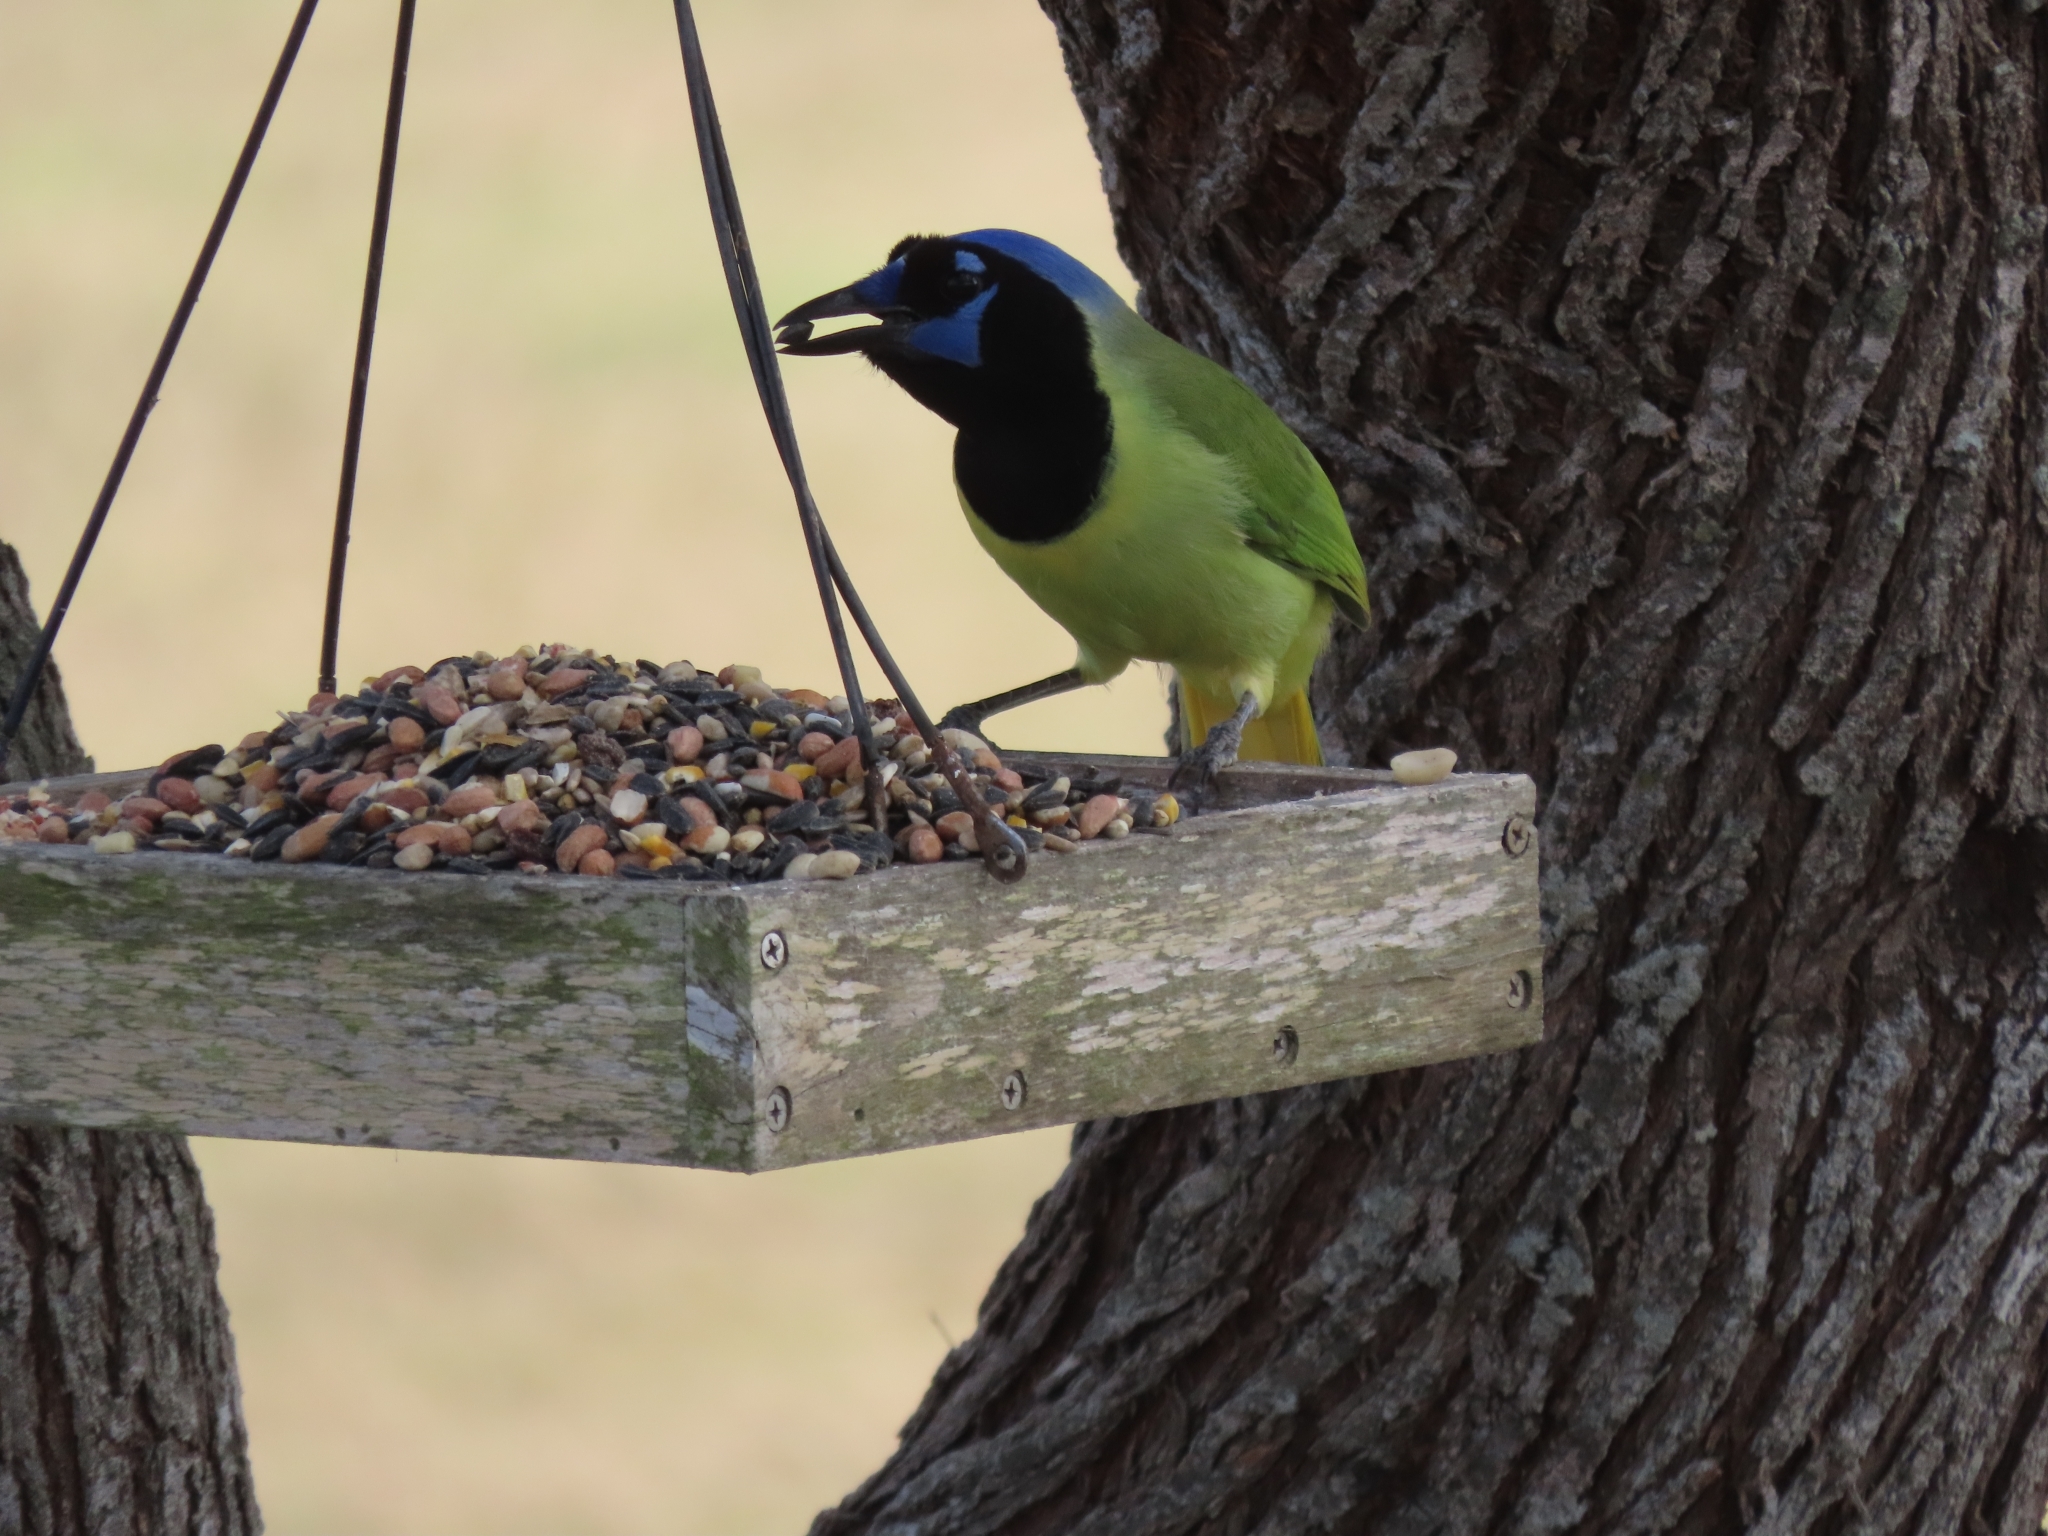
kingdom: Animalia
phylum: Chordata
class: Aves
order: Passeriformes
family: Corvidae
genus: Cyanocorax
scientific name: Cyanocorax yncas
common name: Green jay
